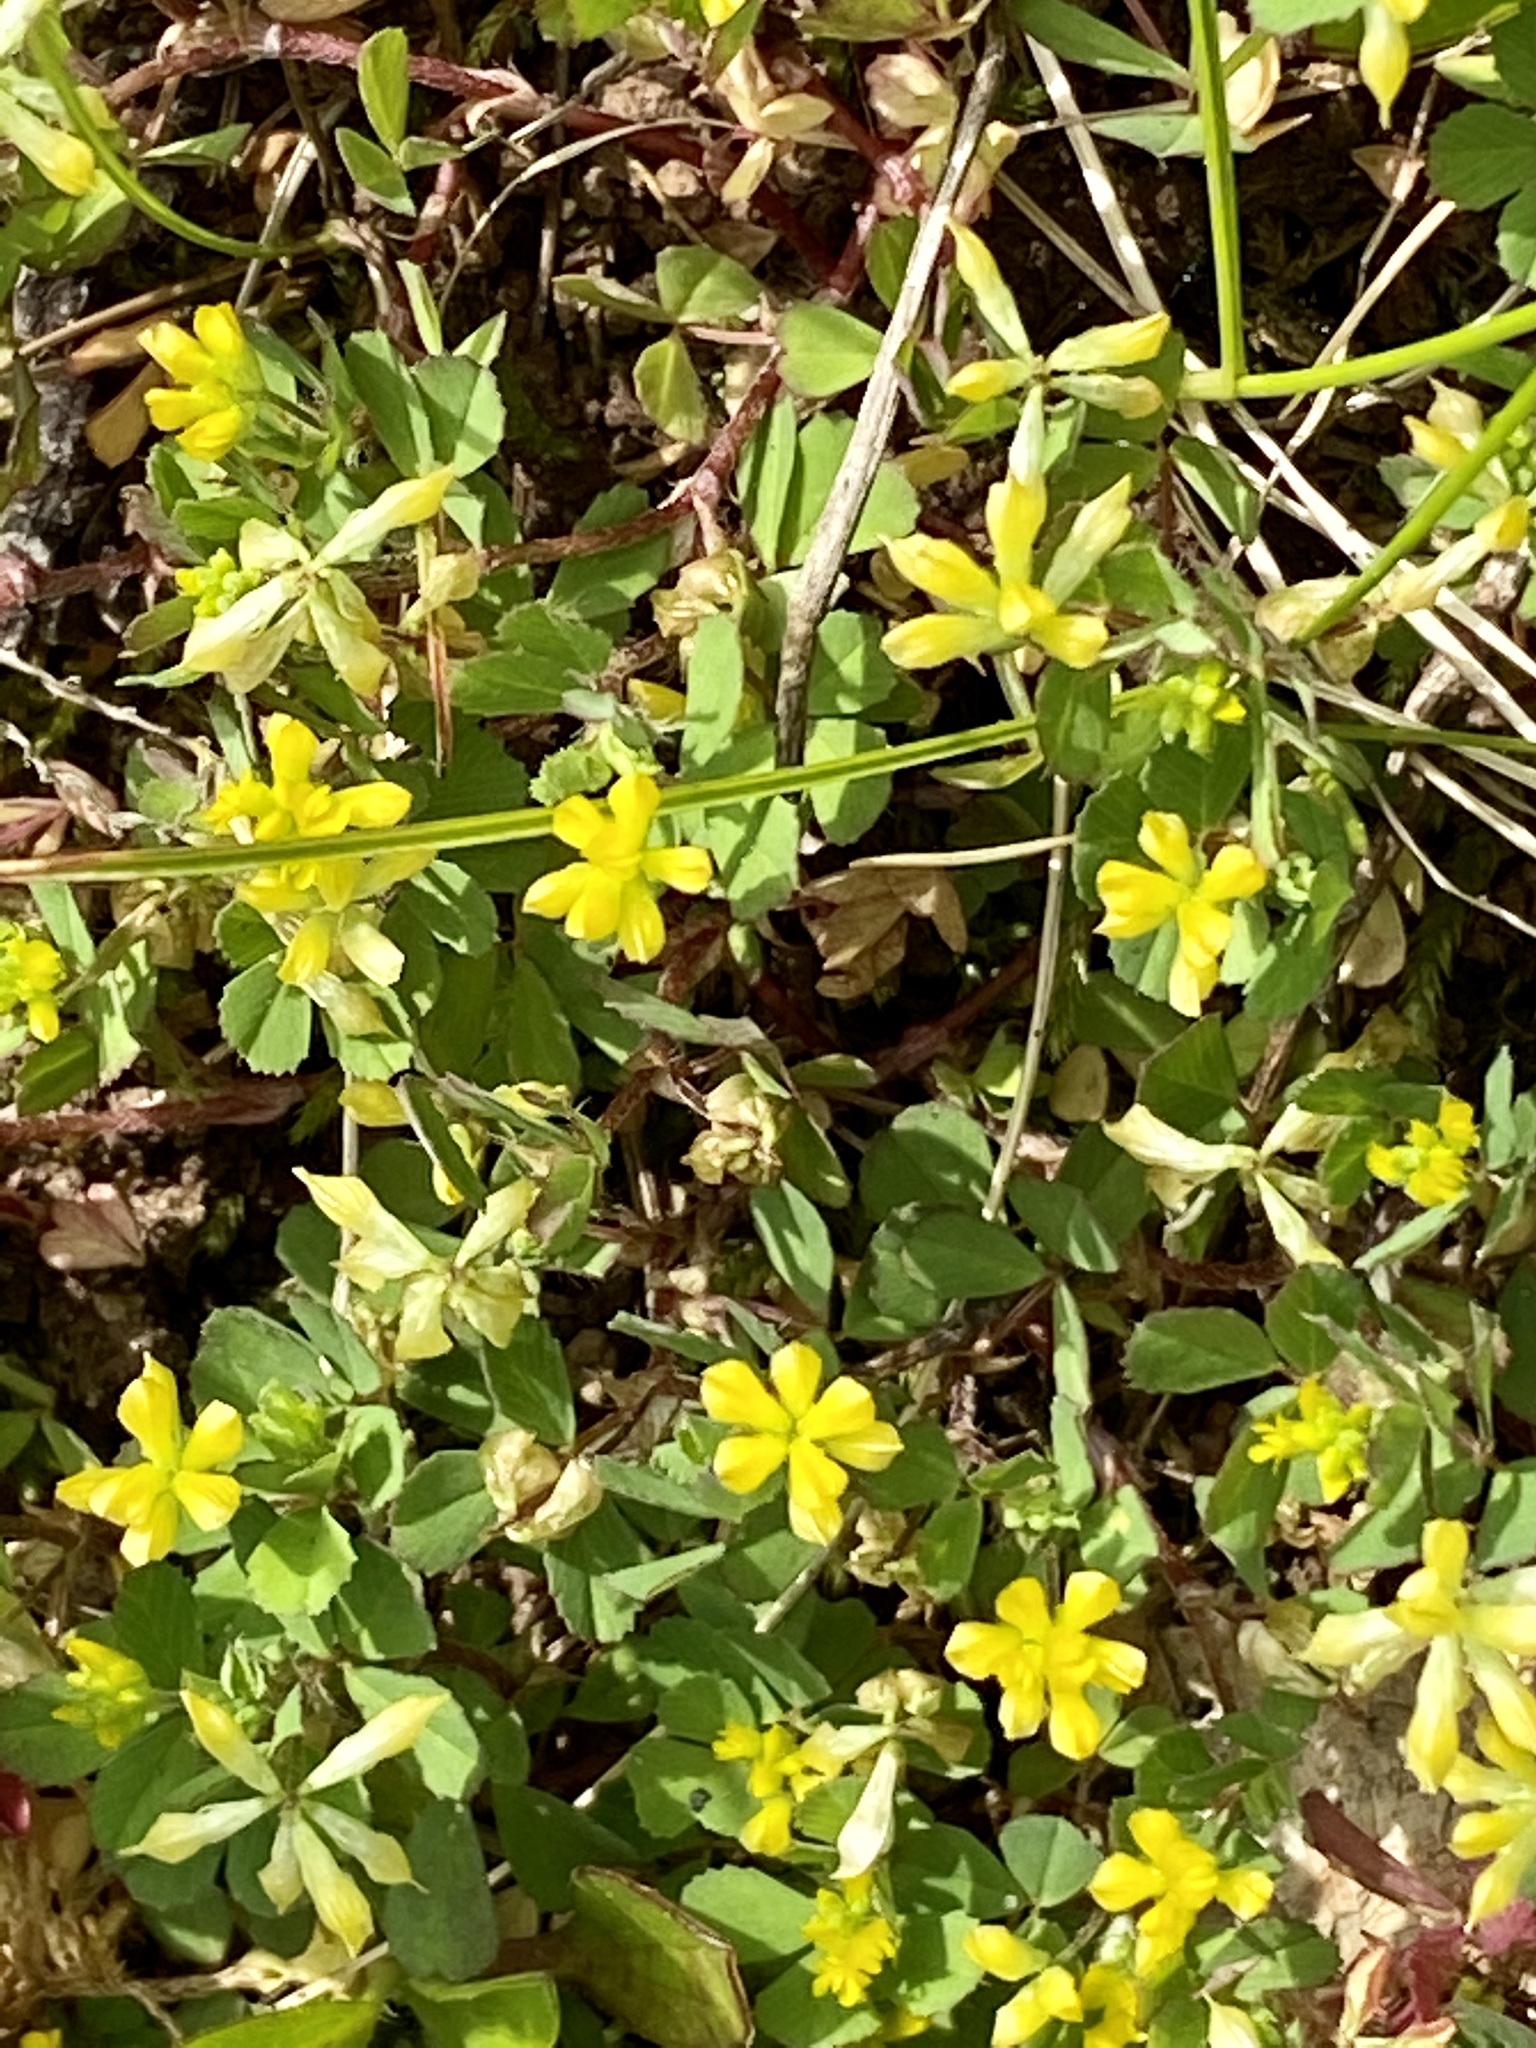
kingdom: Plantae
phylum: Tracheophyta
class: Magnoliopsida
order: Fabales
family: Fabaceae
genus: Trifolium
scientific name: Trifolium dubium
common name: Suckling clover
